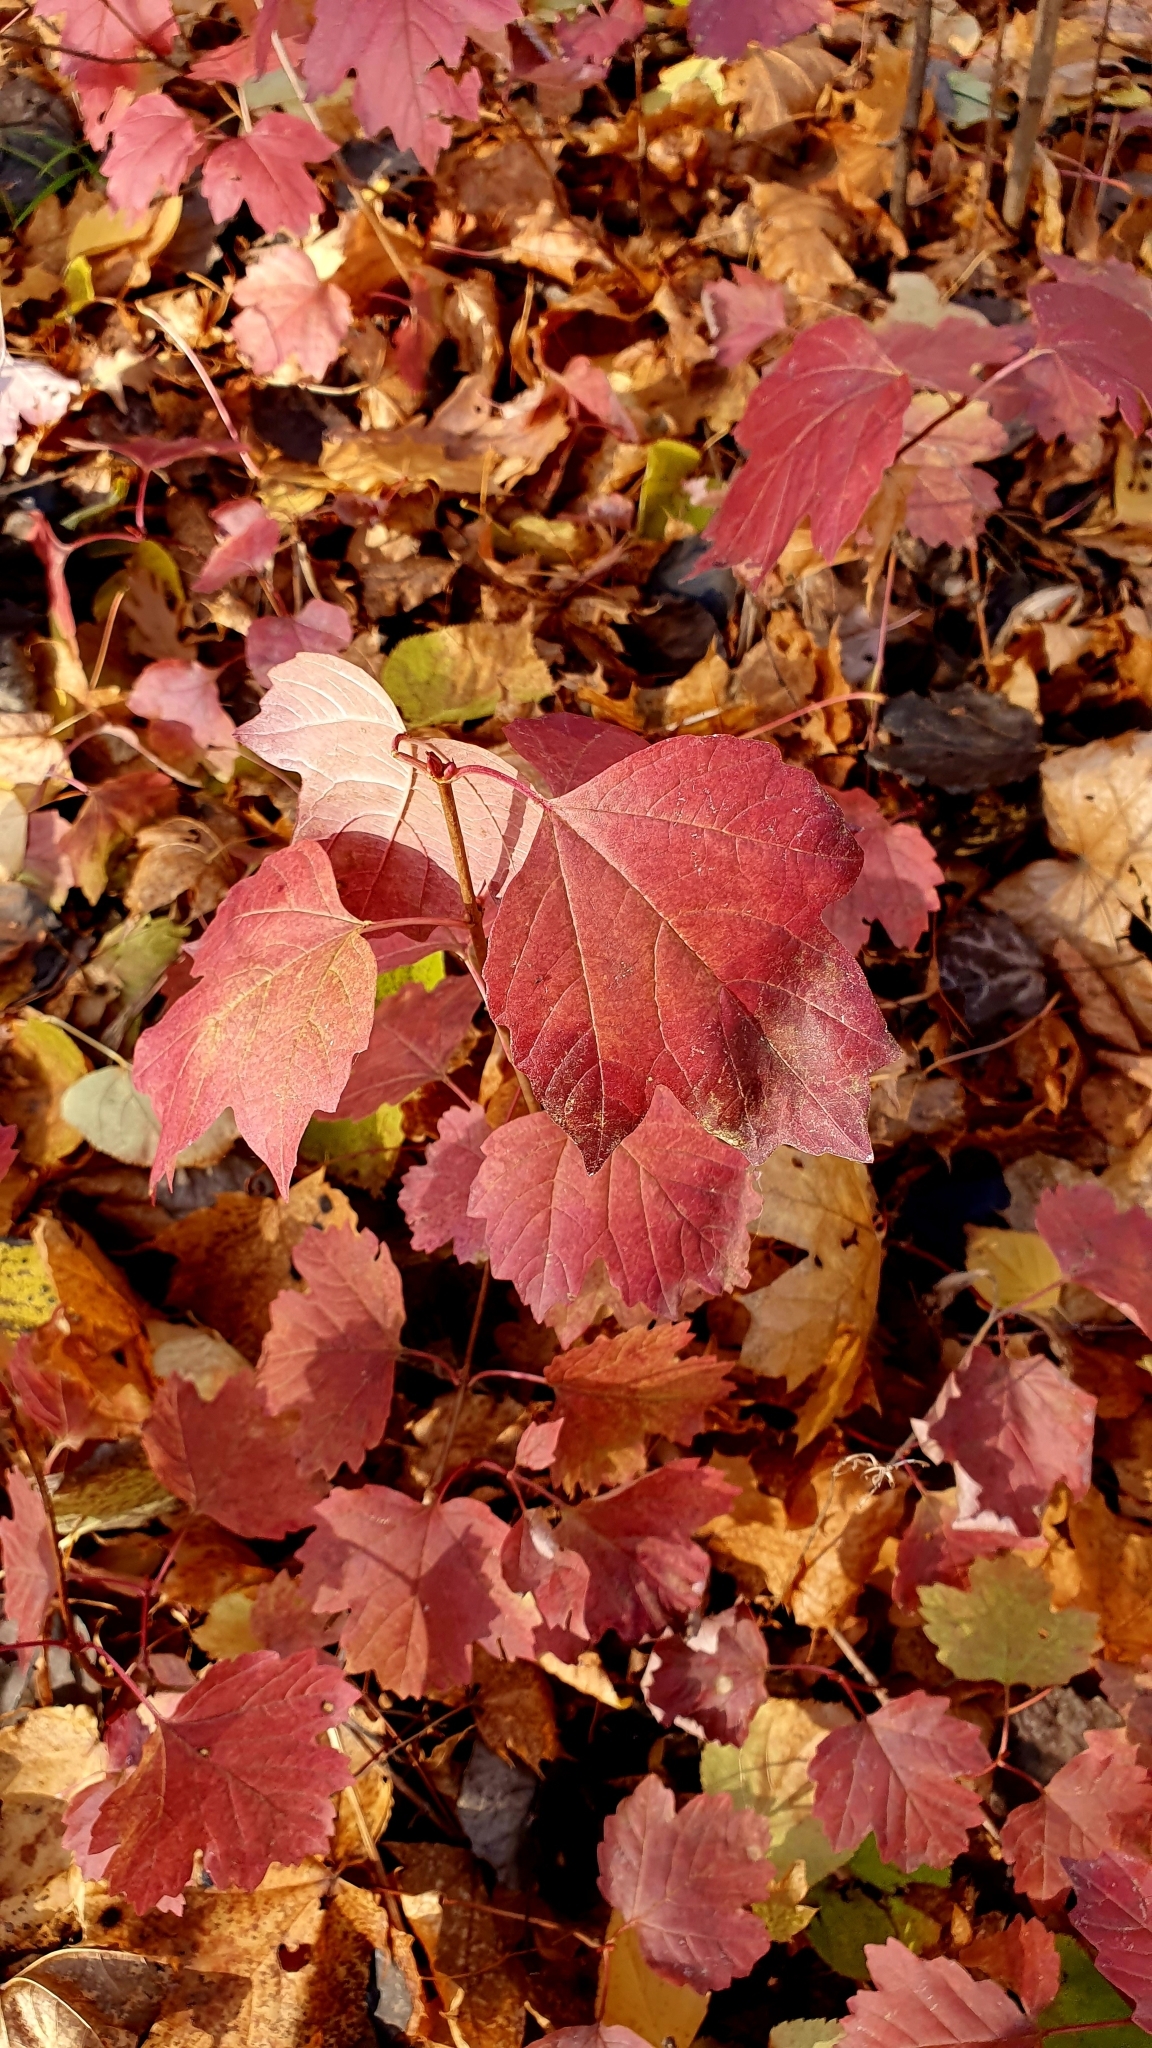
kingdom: Plantae
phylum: Tracheophyta
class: Magnoliopsida
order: Dipsacales
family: Viburnaceae
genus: Viburnum
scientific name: Viburnum opulus
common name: Guelder-rose
